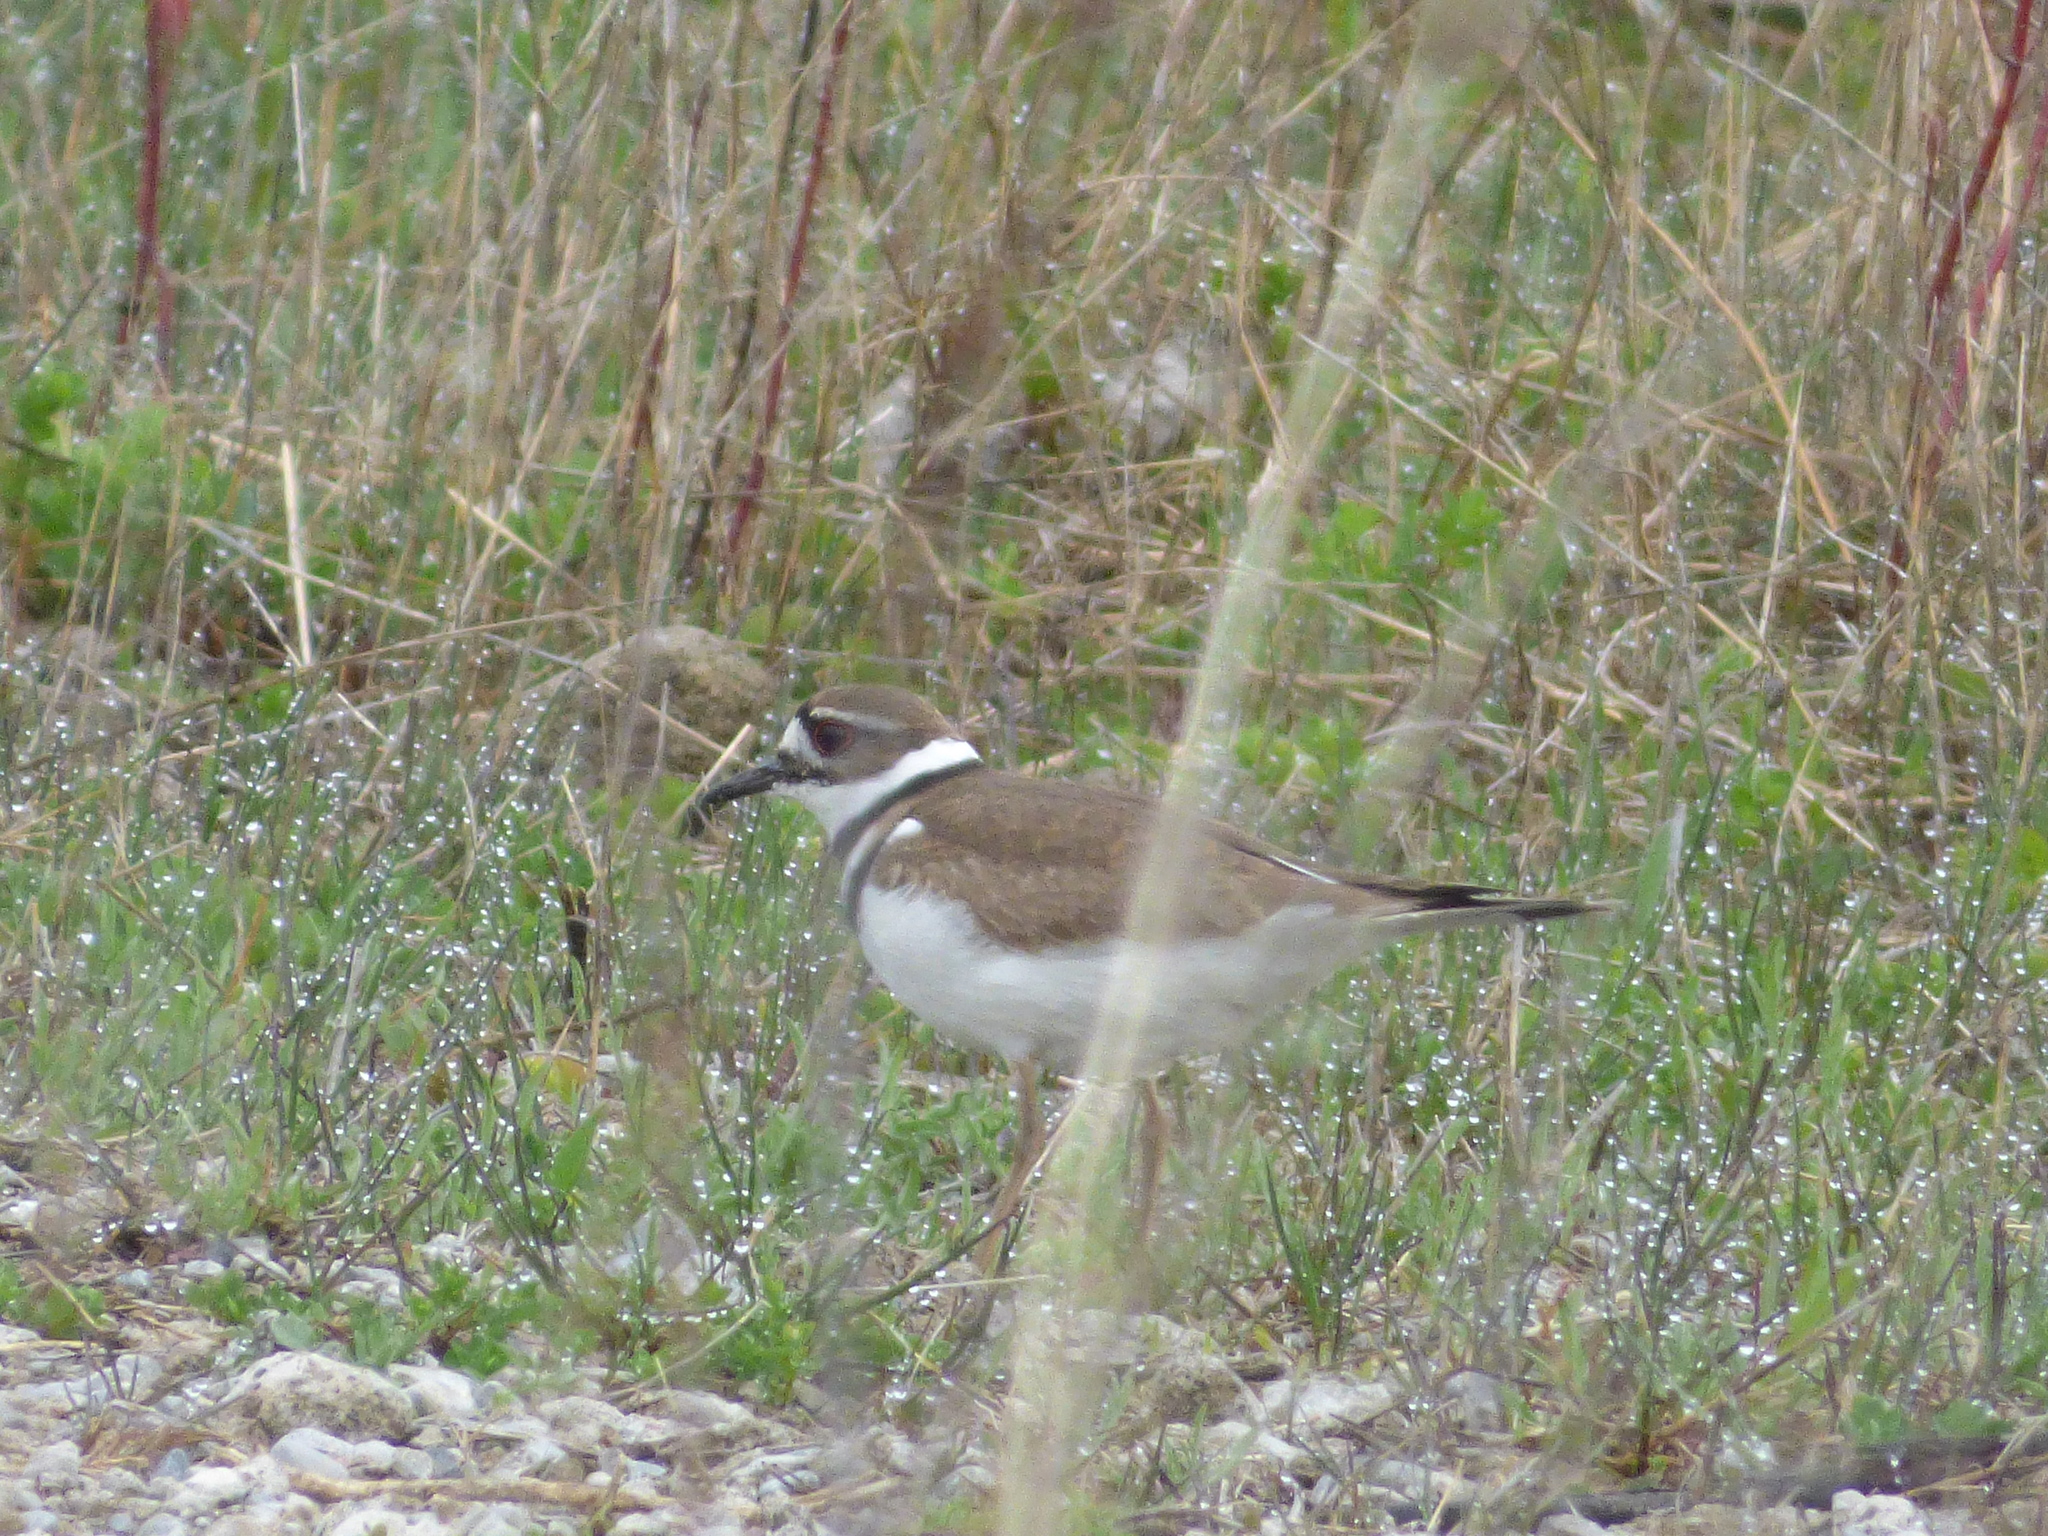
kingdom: Animalia
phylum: Chordata
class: Aves
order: Charadriiformes
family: Charadriidae
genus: Charadrius
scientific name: Charadrius vociferus
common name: Killdeer
